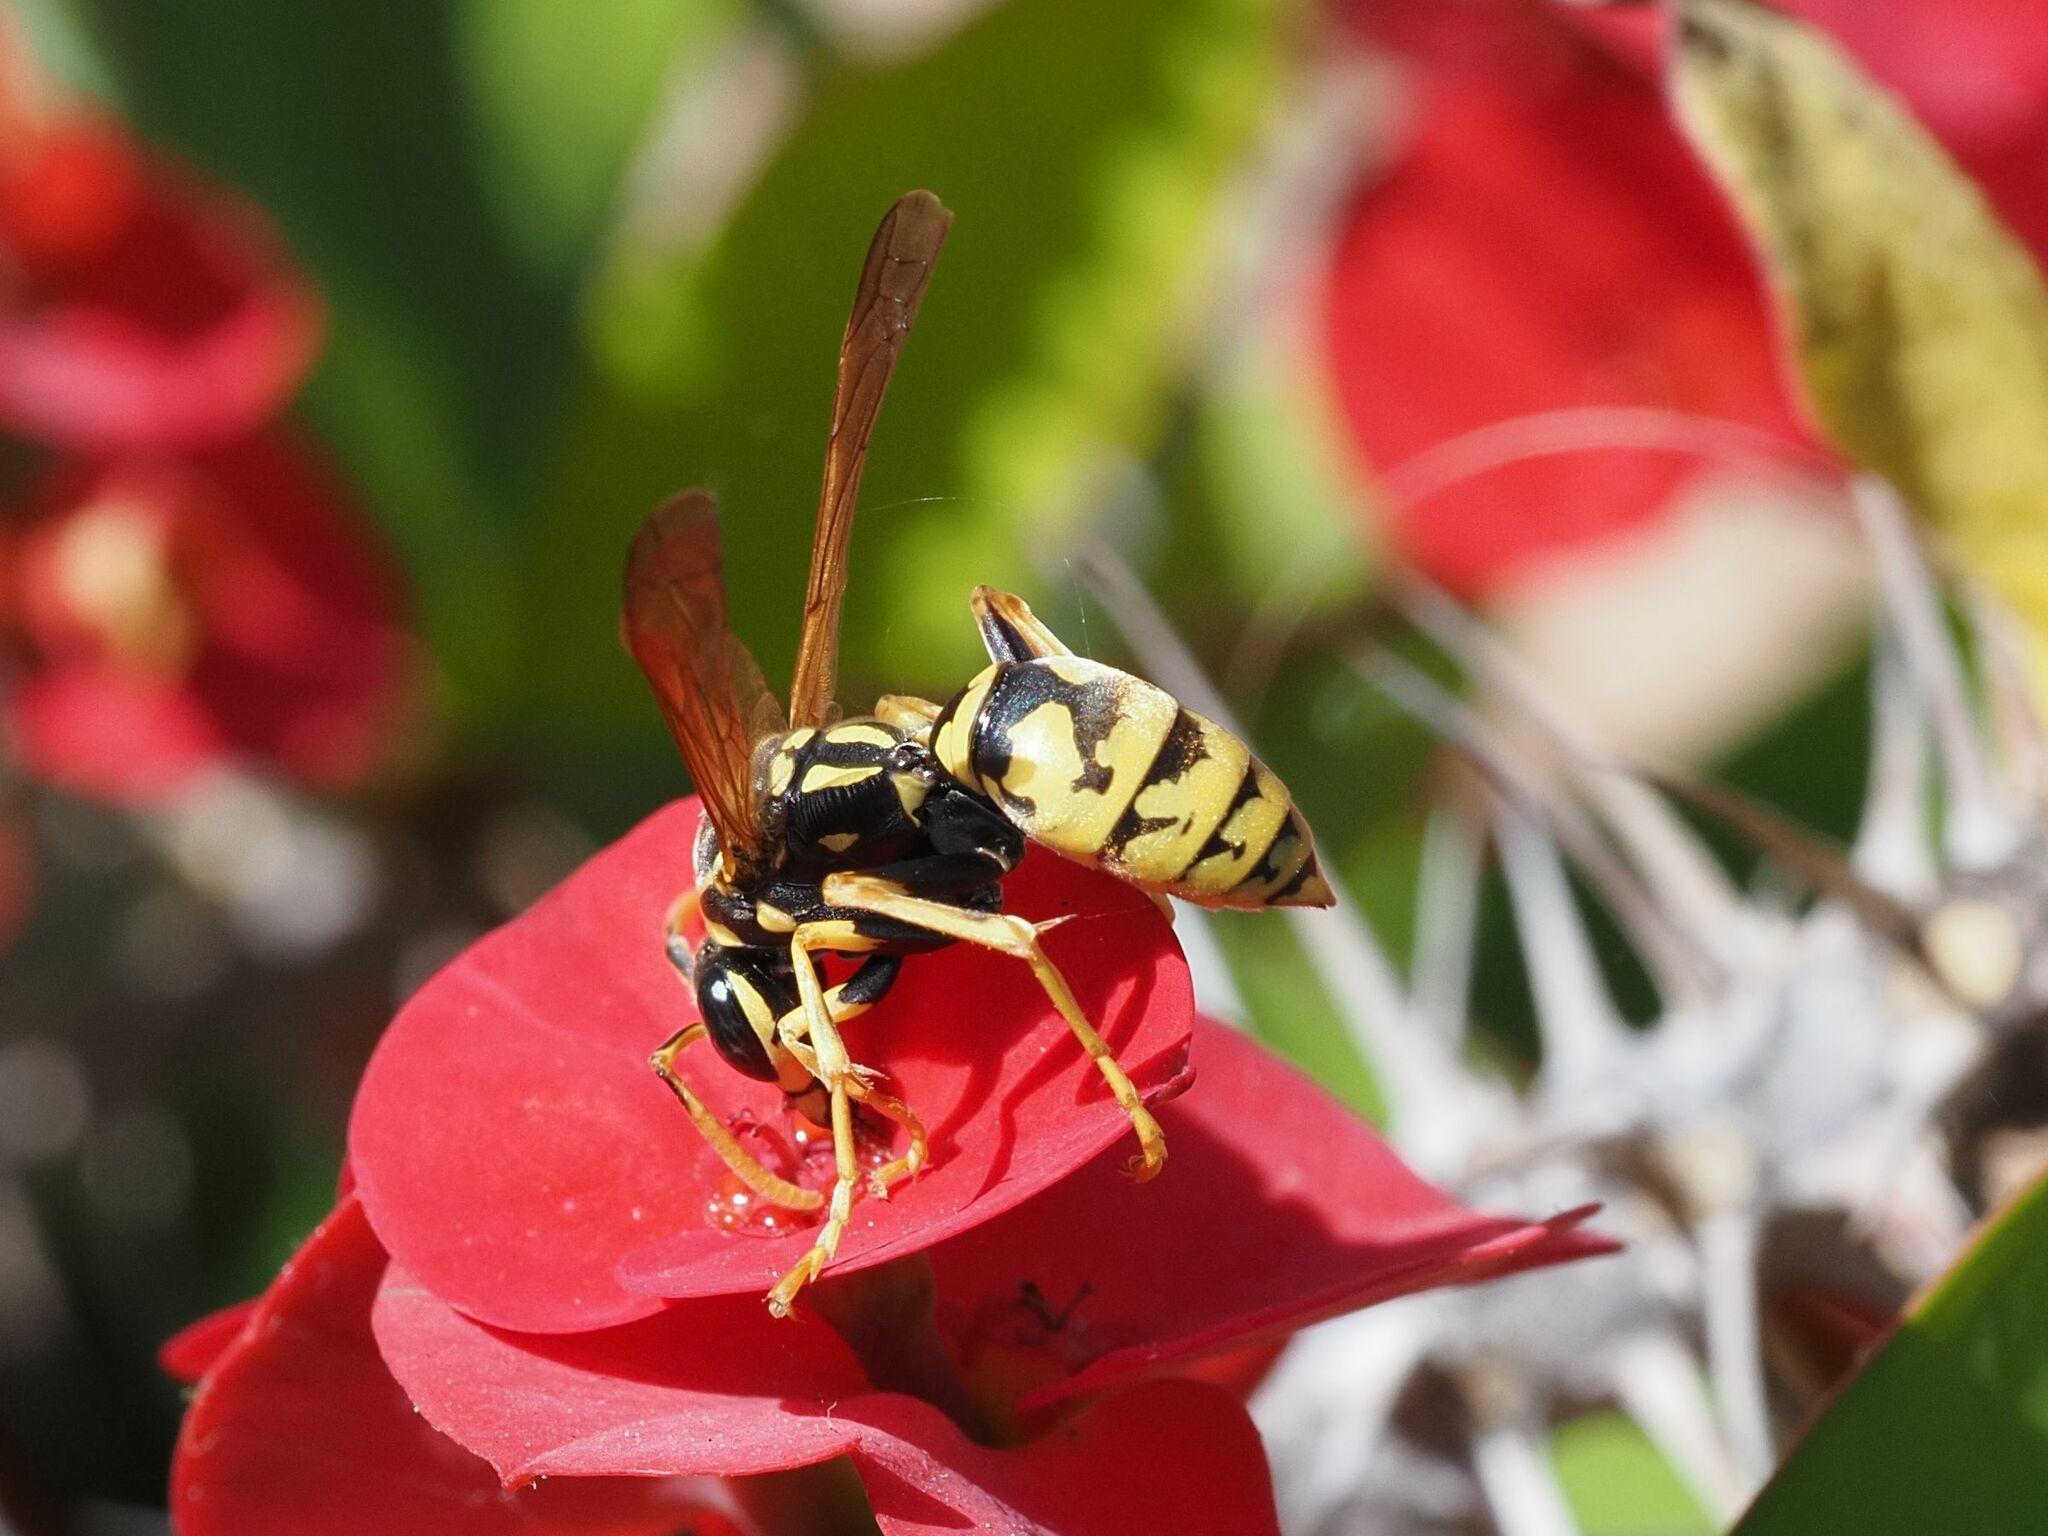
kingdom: Animalia
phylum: Arthropoda
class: Insecta
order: Hymenoptera
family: Eumenidae
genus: Polistes
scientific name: Polistes dominula
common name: Paper wasp
